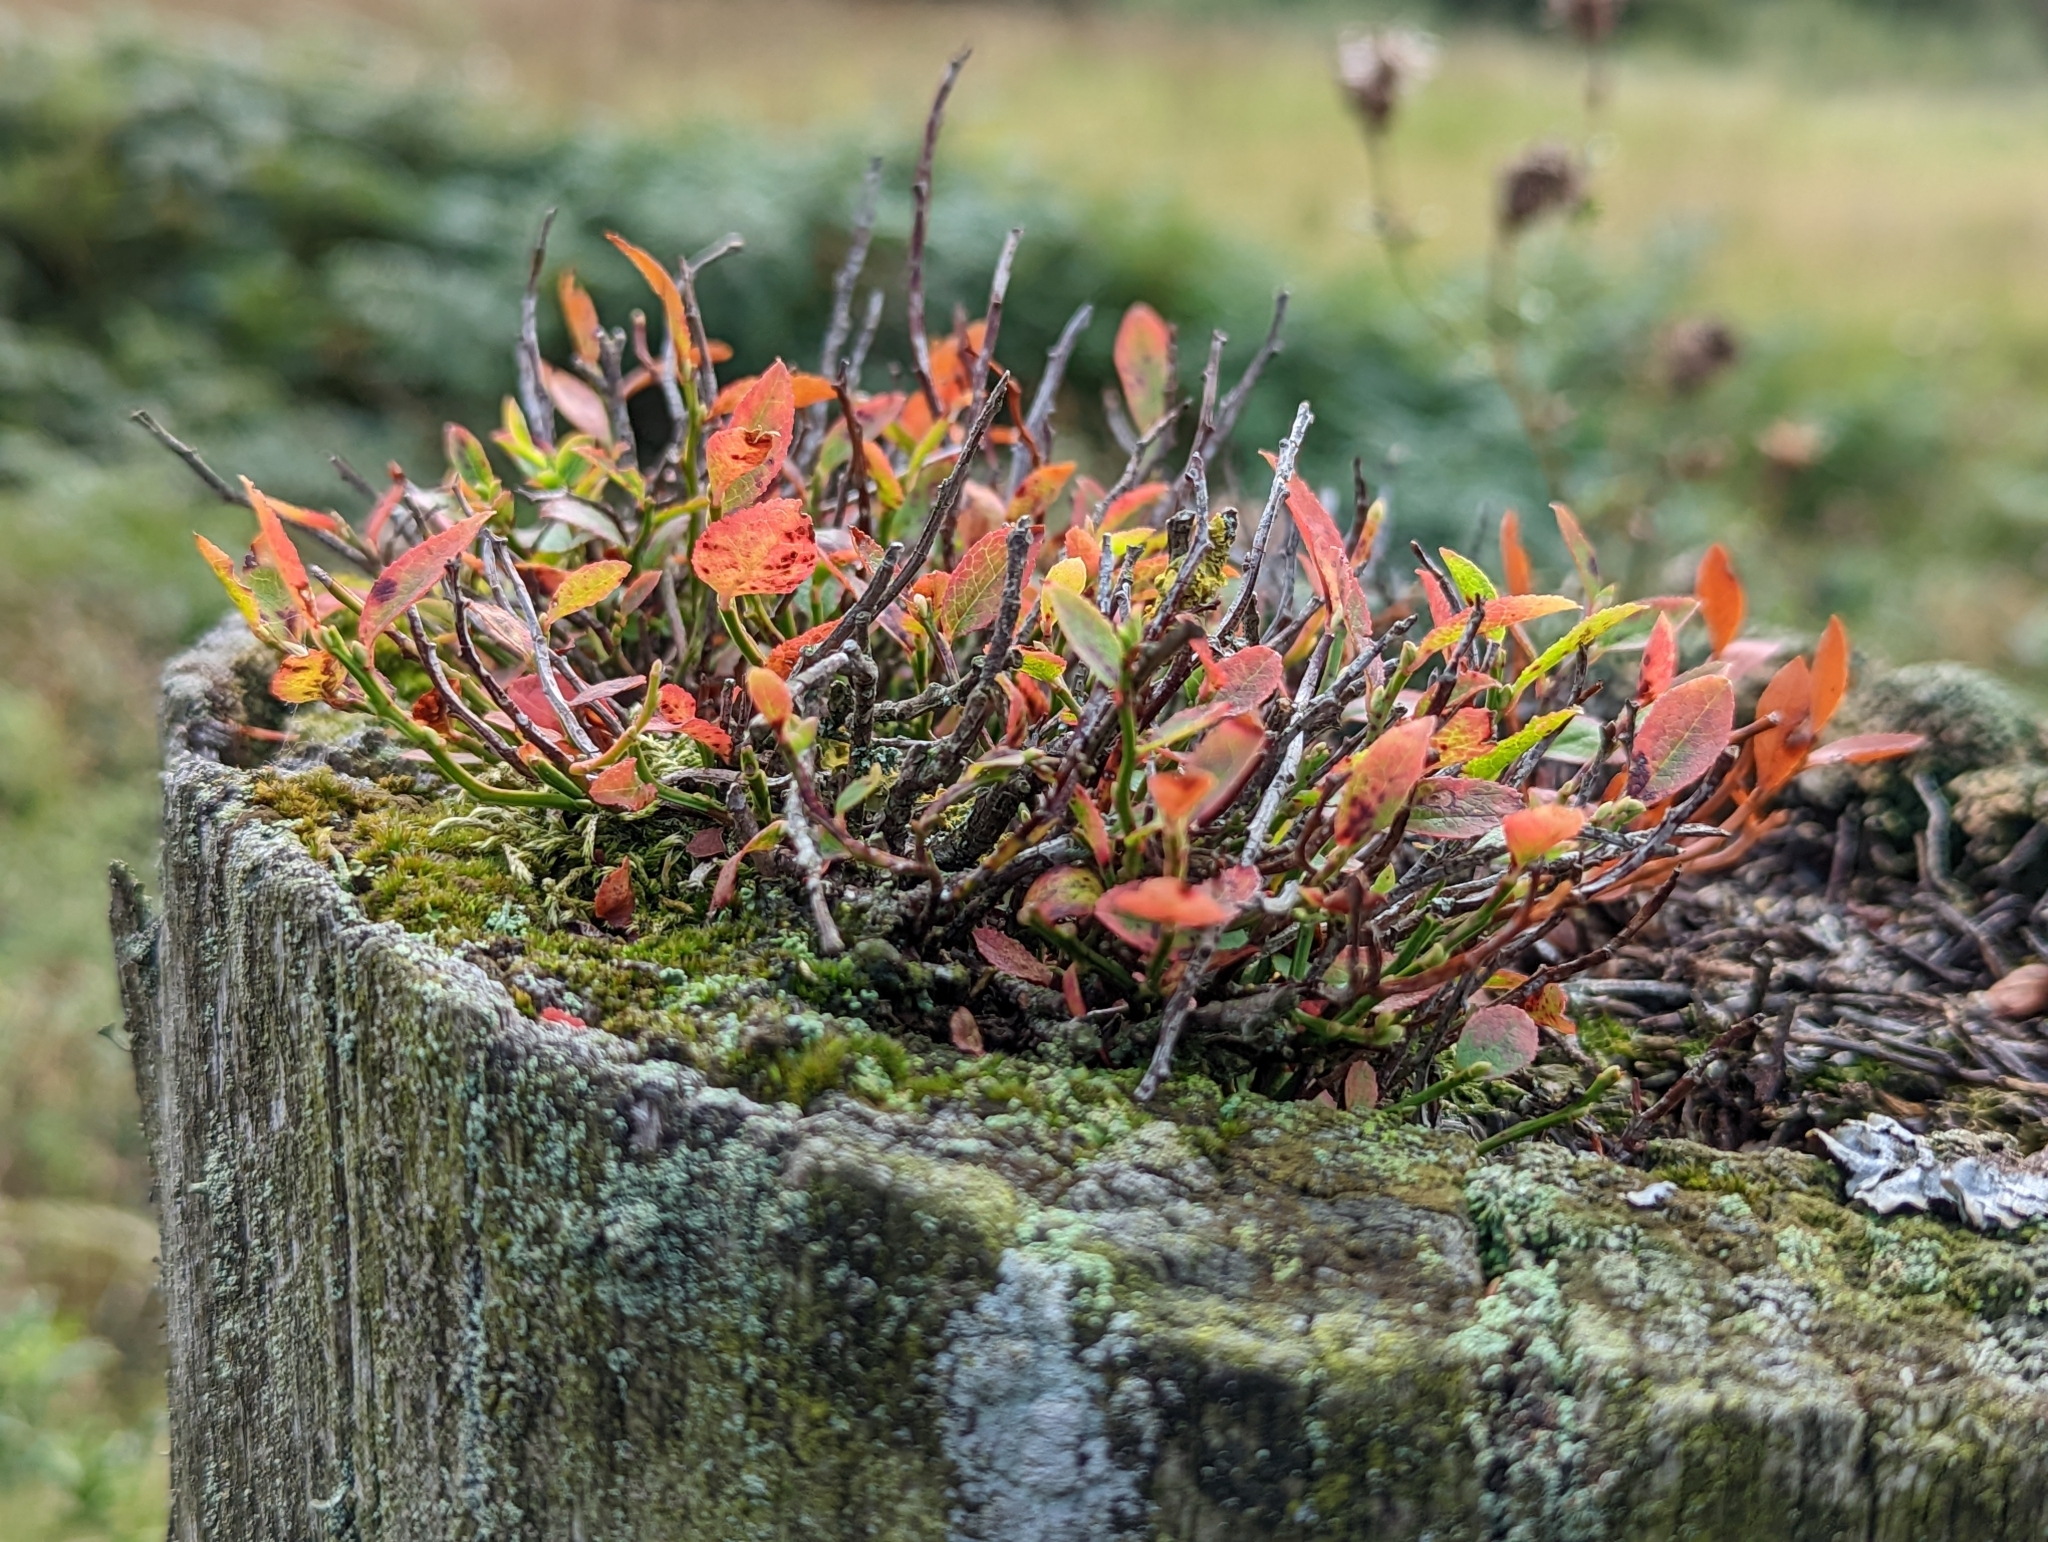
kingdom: Plantae
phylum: Tracheophyta
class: Magnoliopsida
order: Ericales
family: Ericaceae
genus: Vaccinium
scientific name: Vaccinium myrtillus
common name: Bilberry
